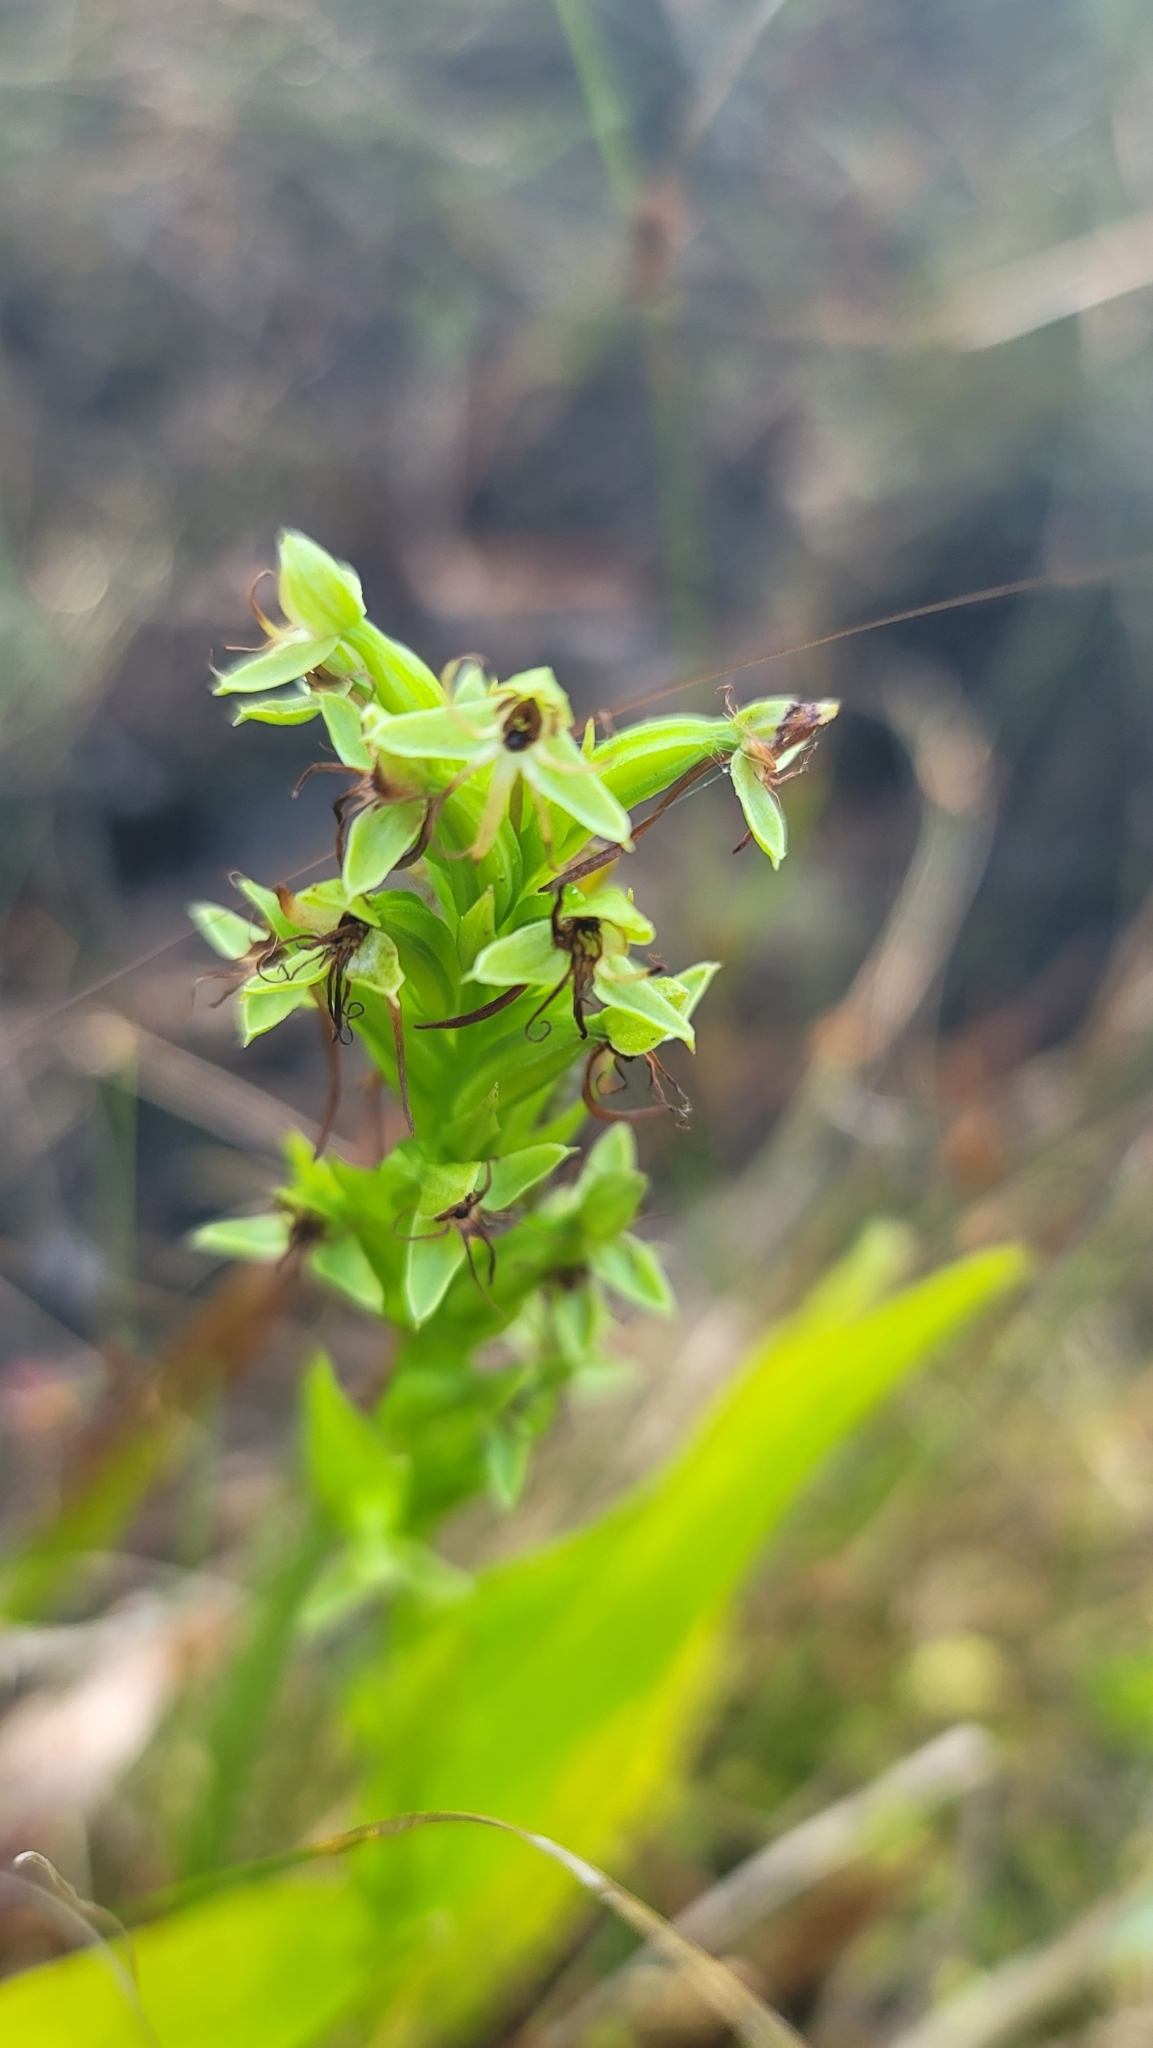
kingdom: Plantae
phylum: Tracheophyta
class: Liliopsida
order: Asparagales
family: Orchidaceae
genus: Habenaria
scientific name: Habenaria repens
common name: Water orchid
